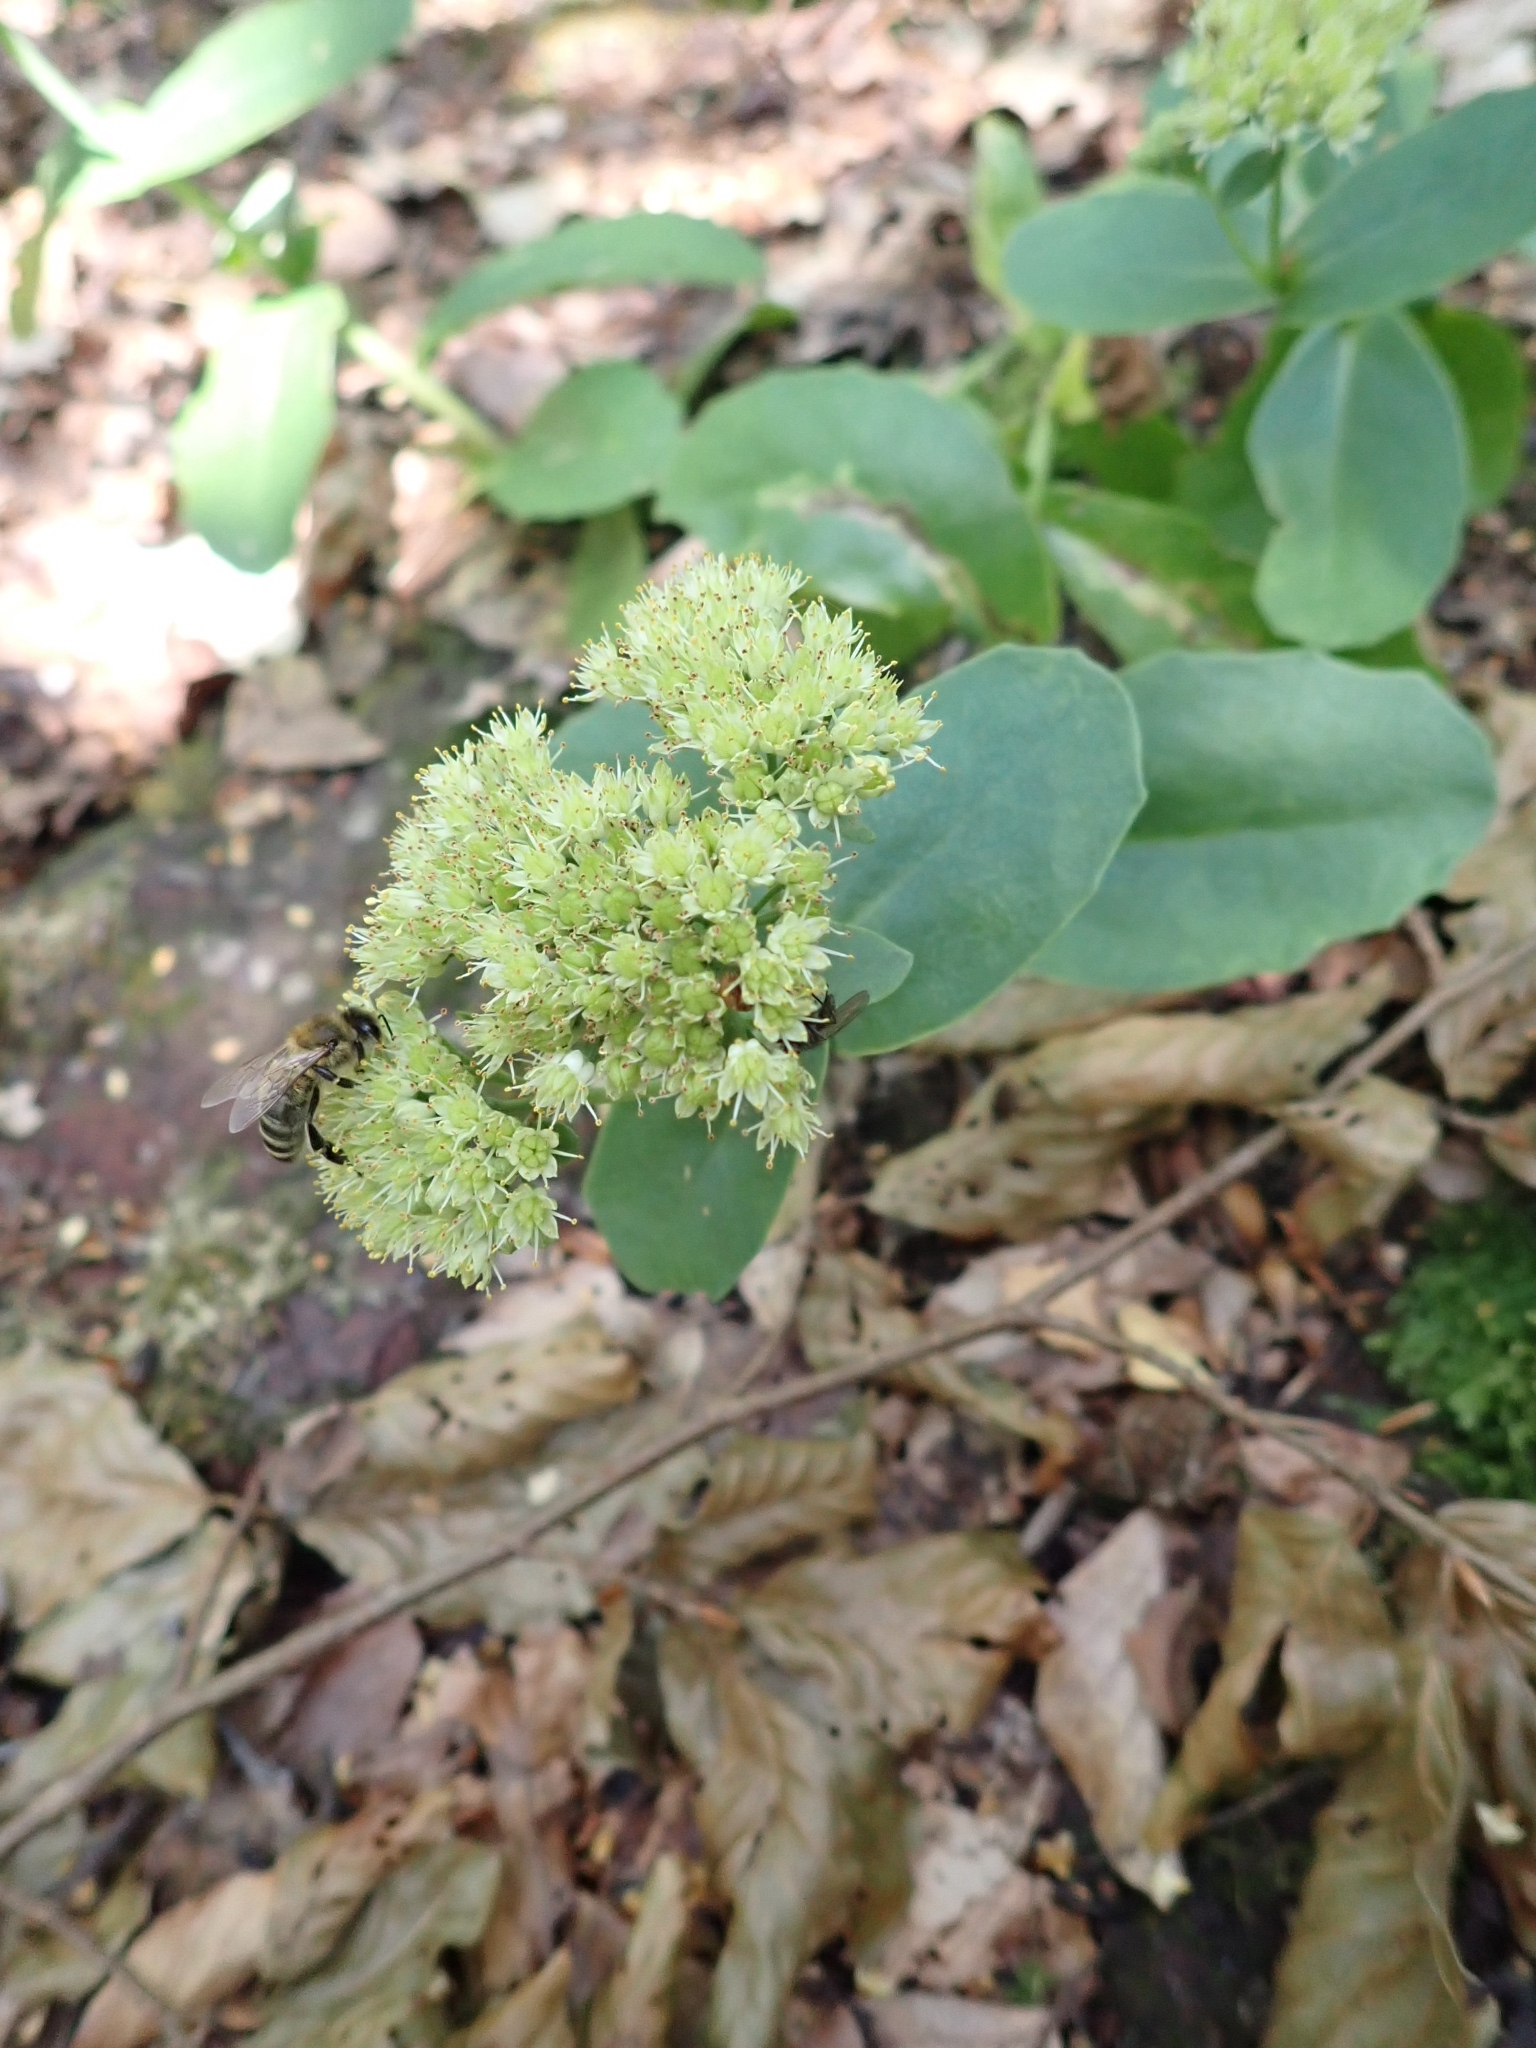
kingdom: Plantae
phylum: Tracheophyta
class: Magnoliopsida
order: Saxifragales
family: Crassulaceae
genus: Hylotelephium
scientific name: Hylotelephium maximum
